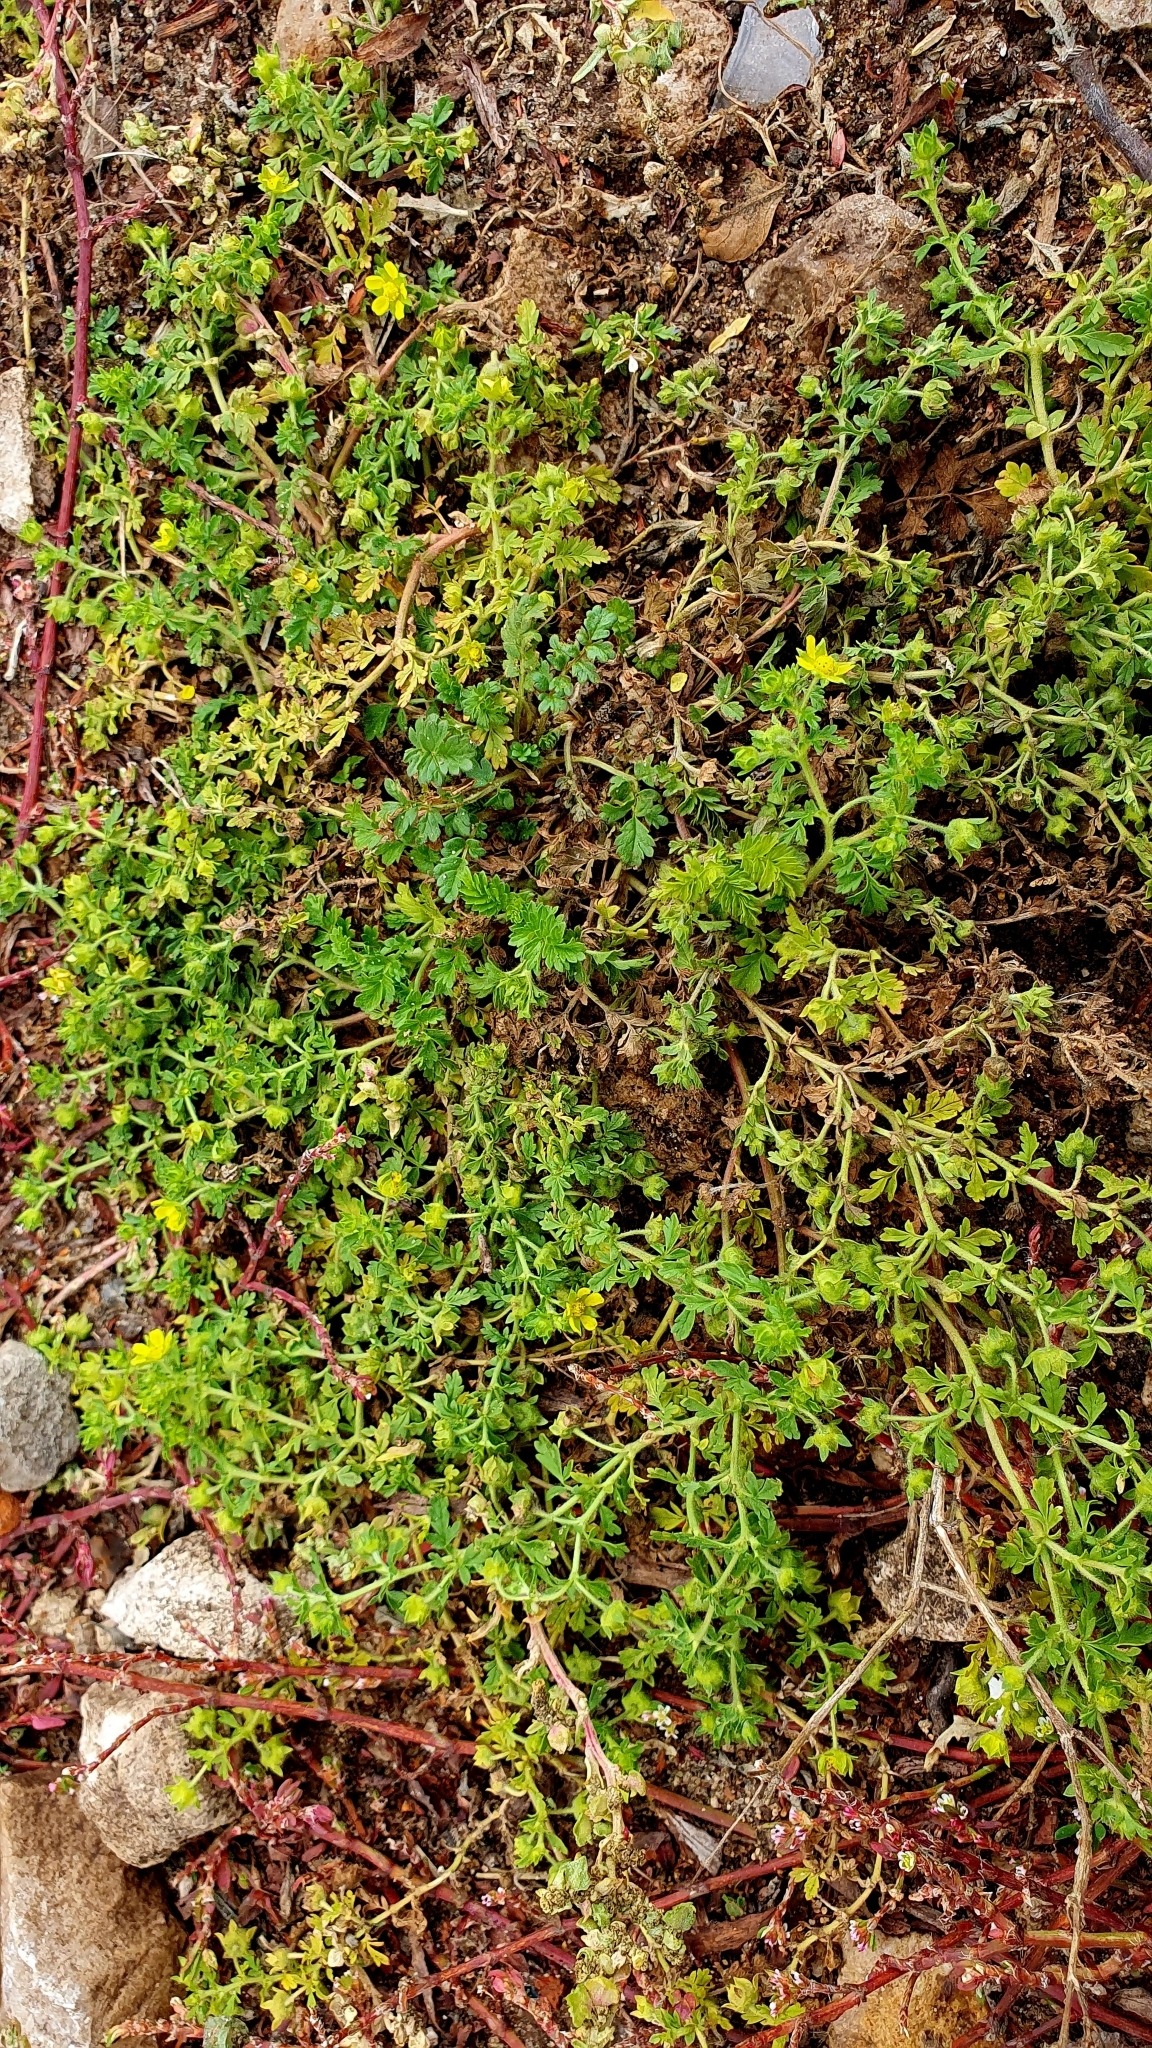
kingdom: Plantae
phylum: Tracheophyta
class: Magnoliopsida
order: Rosales
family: Rosaceae
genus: Potentilla
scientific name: Potentilla supina
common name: Prostrate cinquefoil
